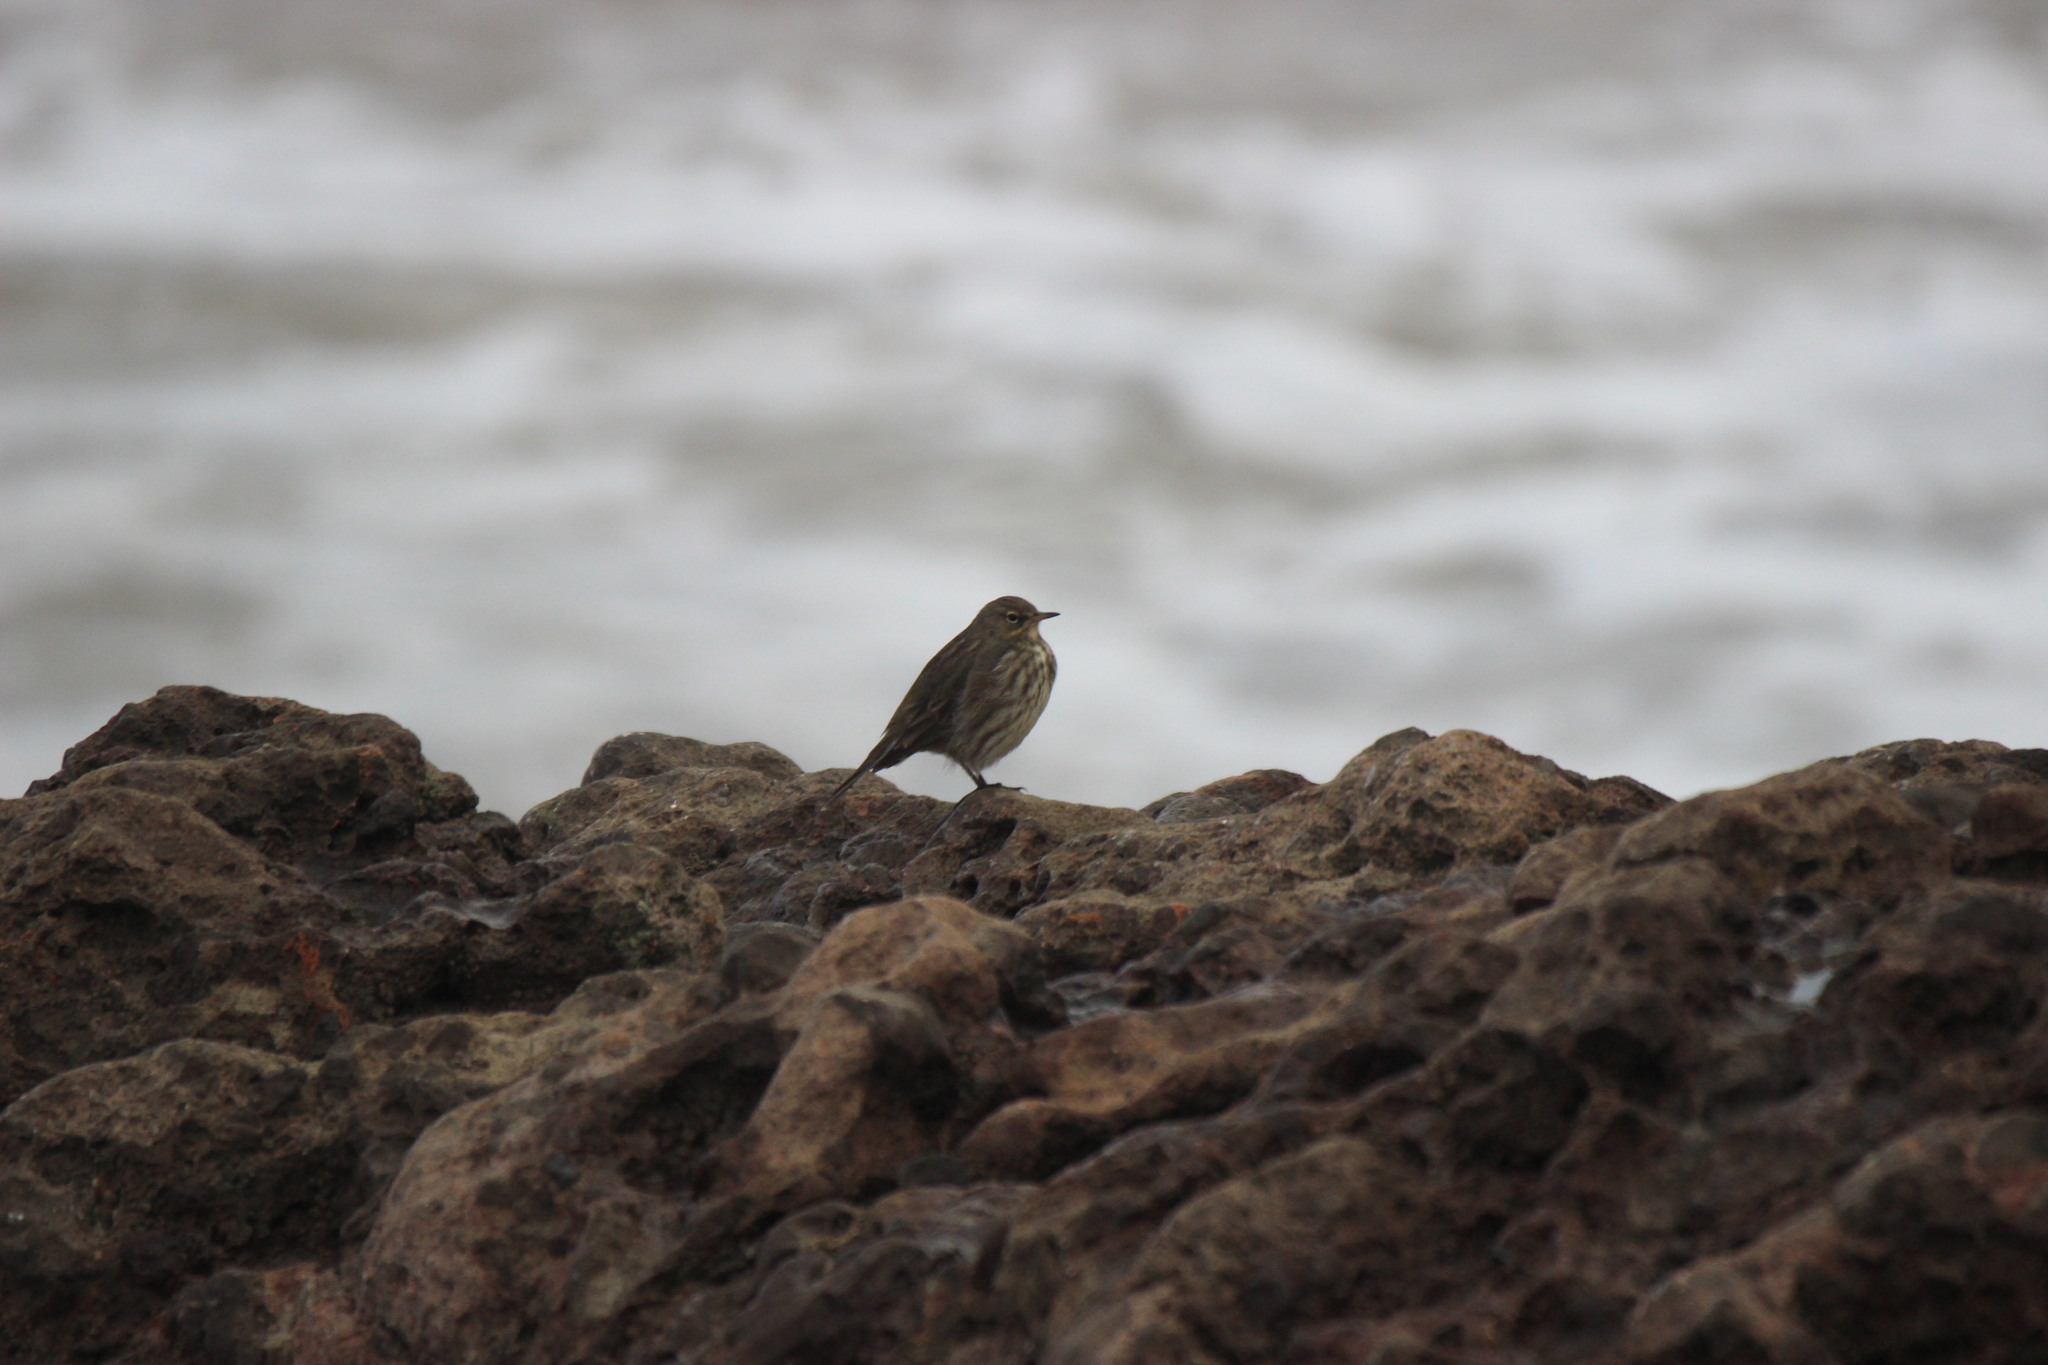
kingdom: Animalia
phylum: Chordata
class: Aves
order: Passeriformes
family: Motacillidae
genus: Anthus
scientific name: Anthus petrosus
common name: Eurasian rock pipit
